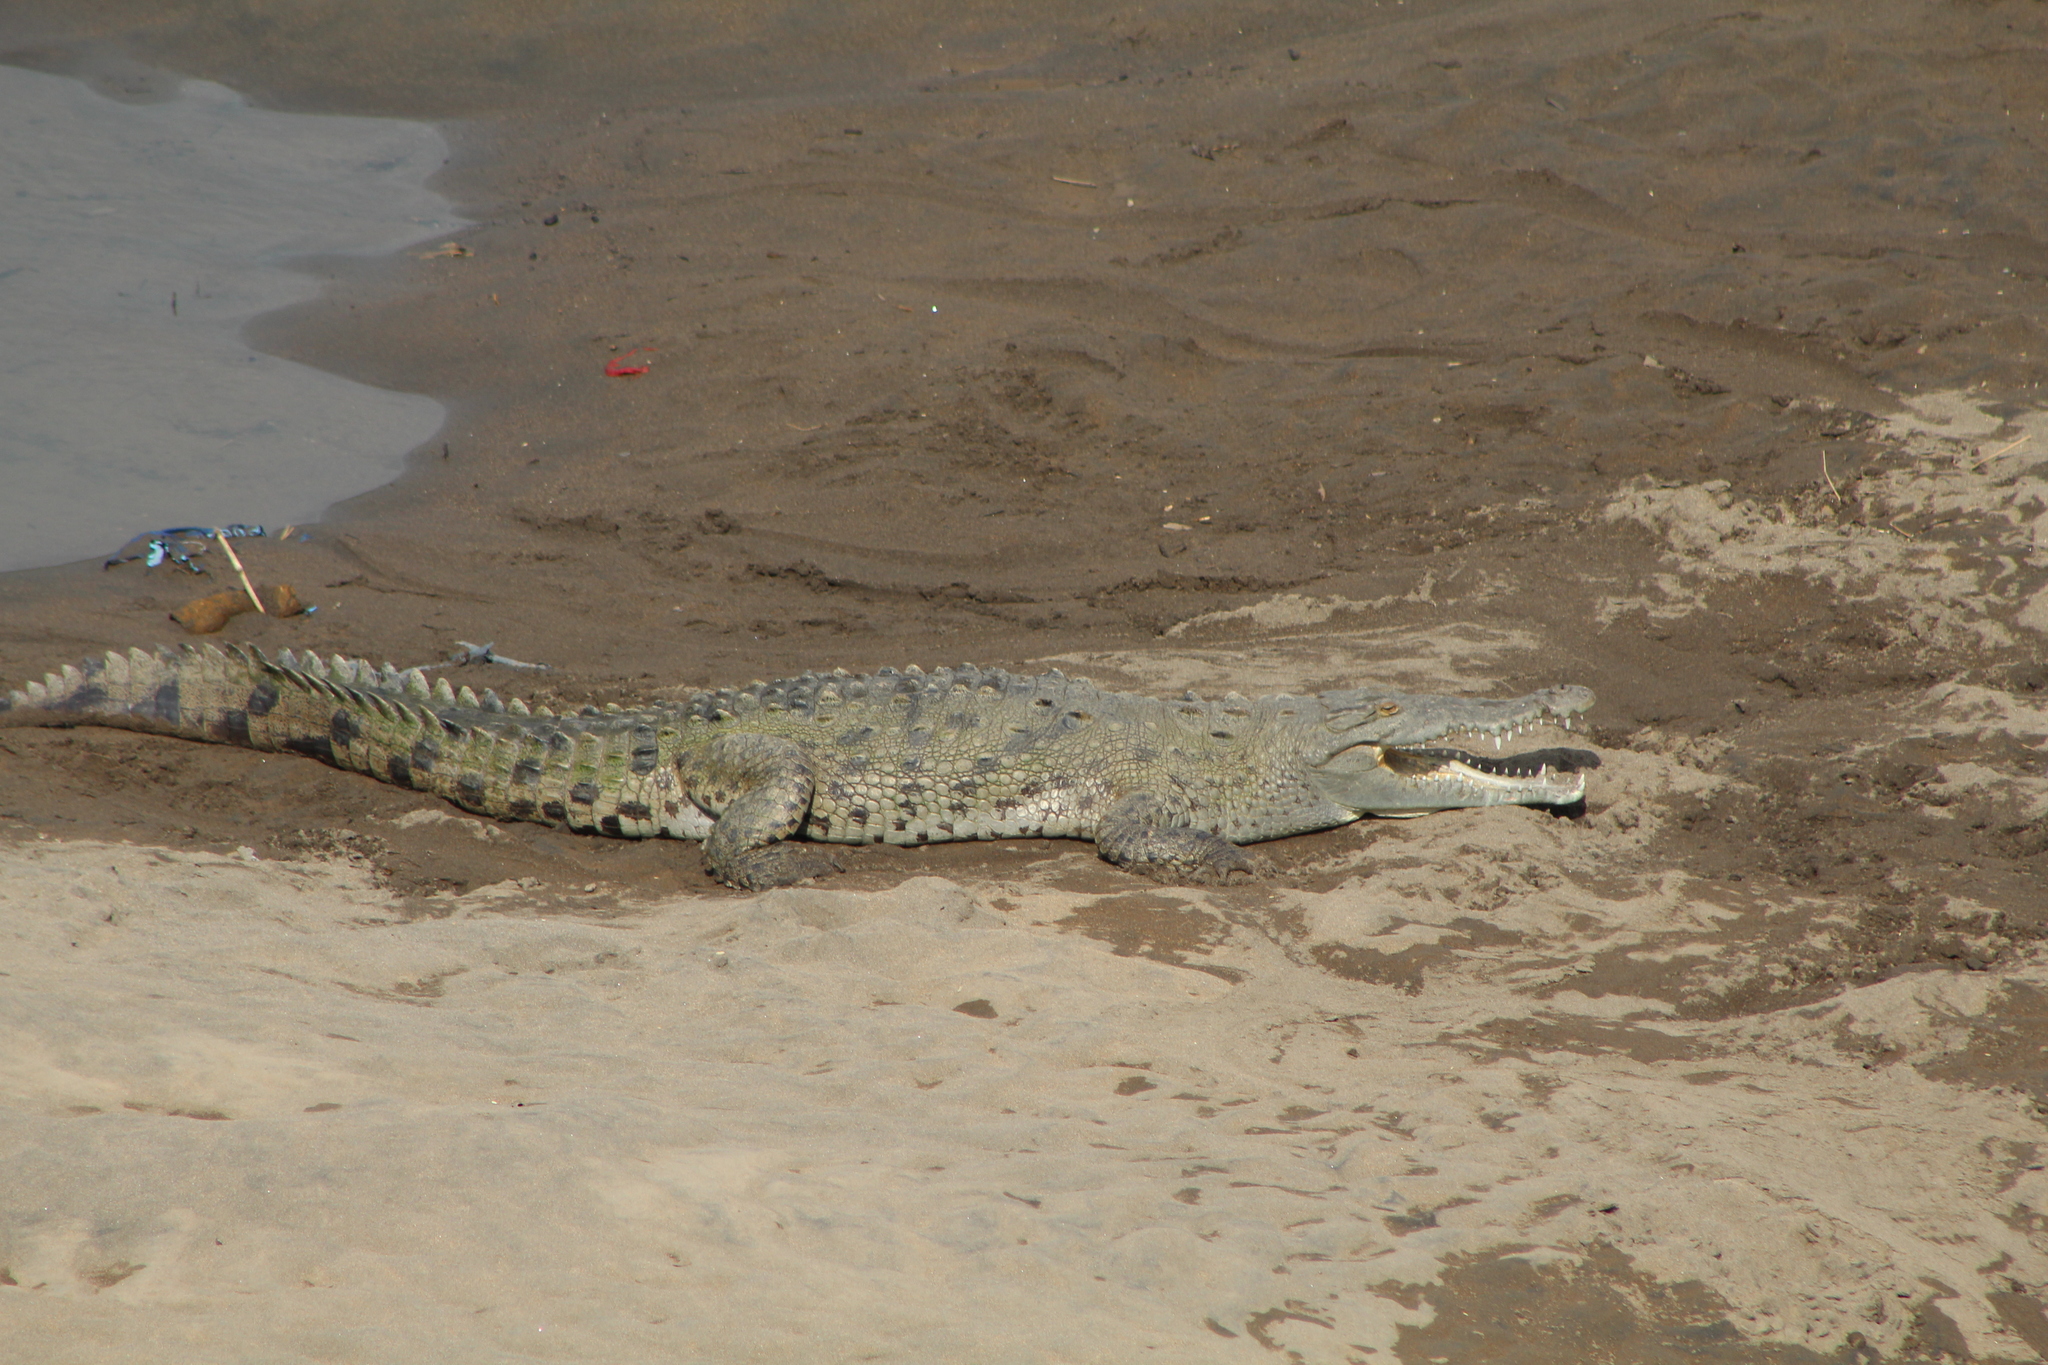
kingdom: Animalia
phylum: Chordata
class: Crocodylia
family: Crocodylidae
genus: Crocodylus
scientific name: Crocodylus acutus
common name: American crocodile
